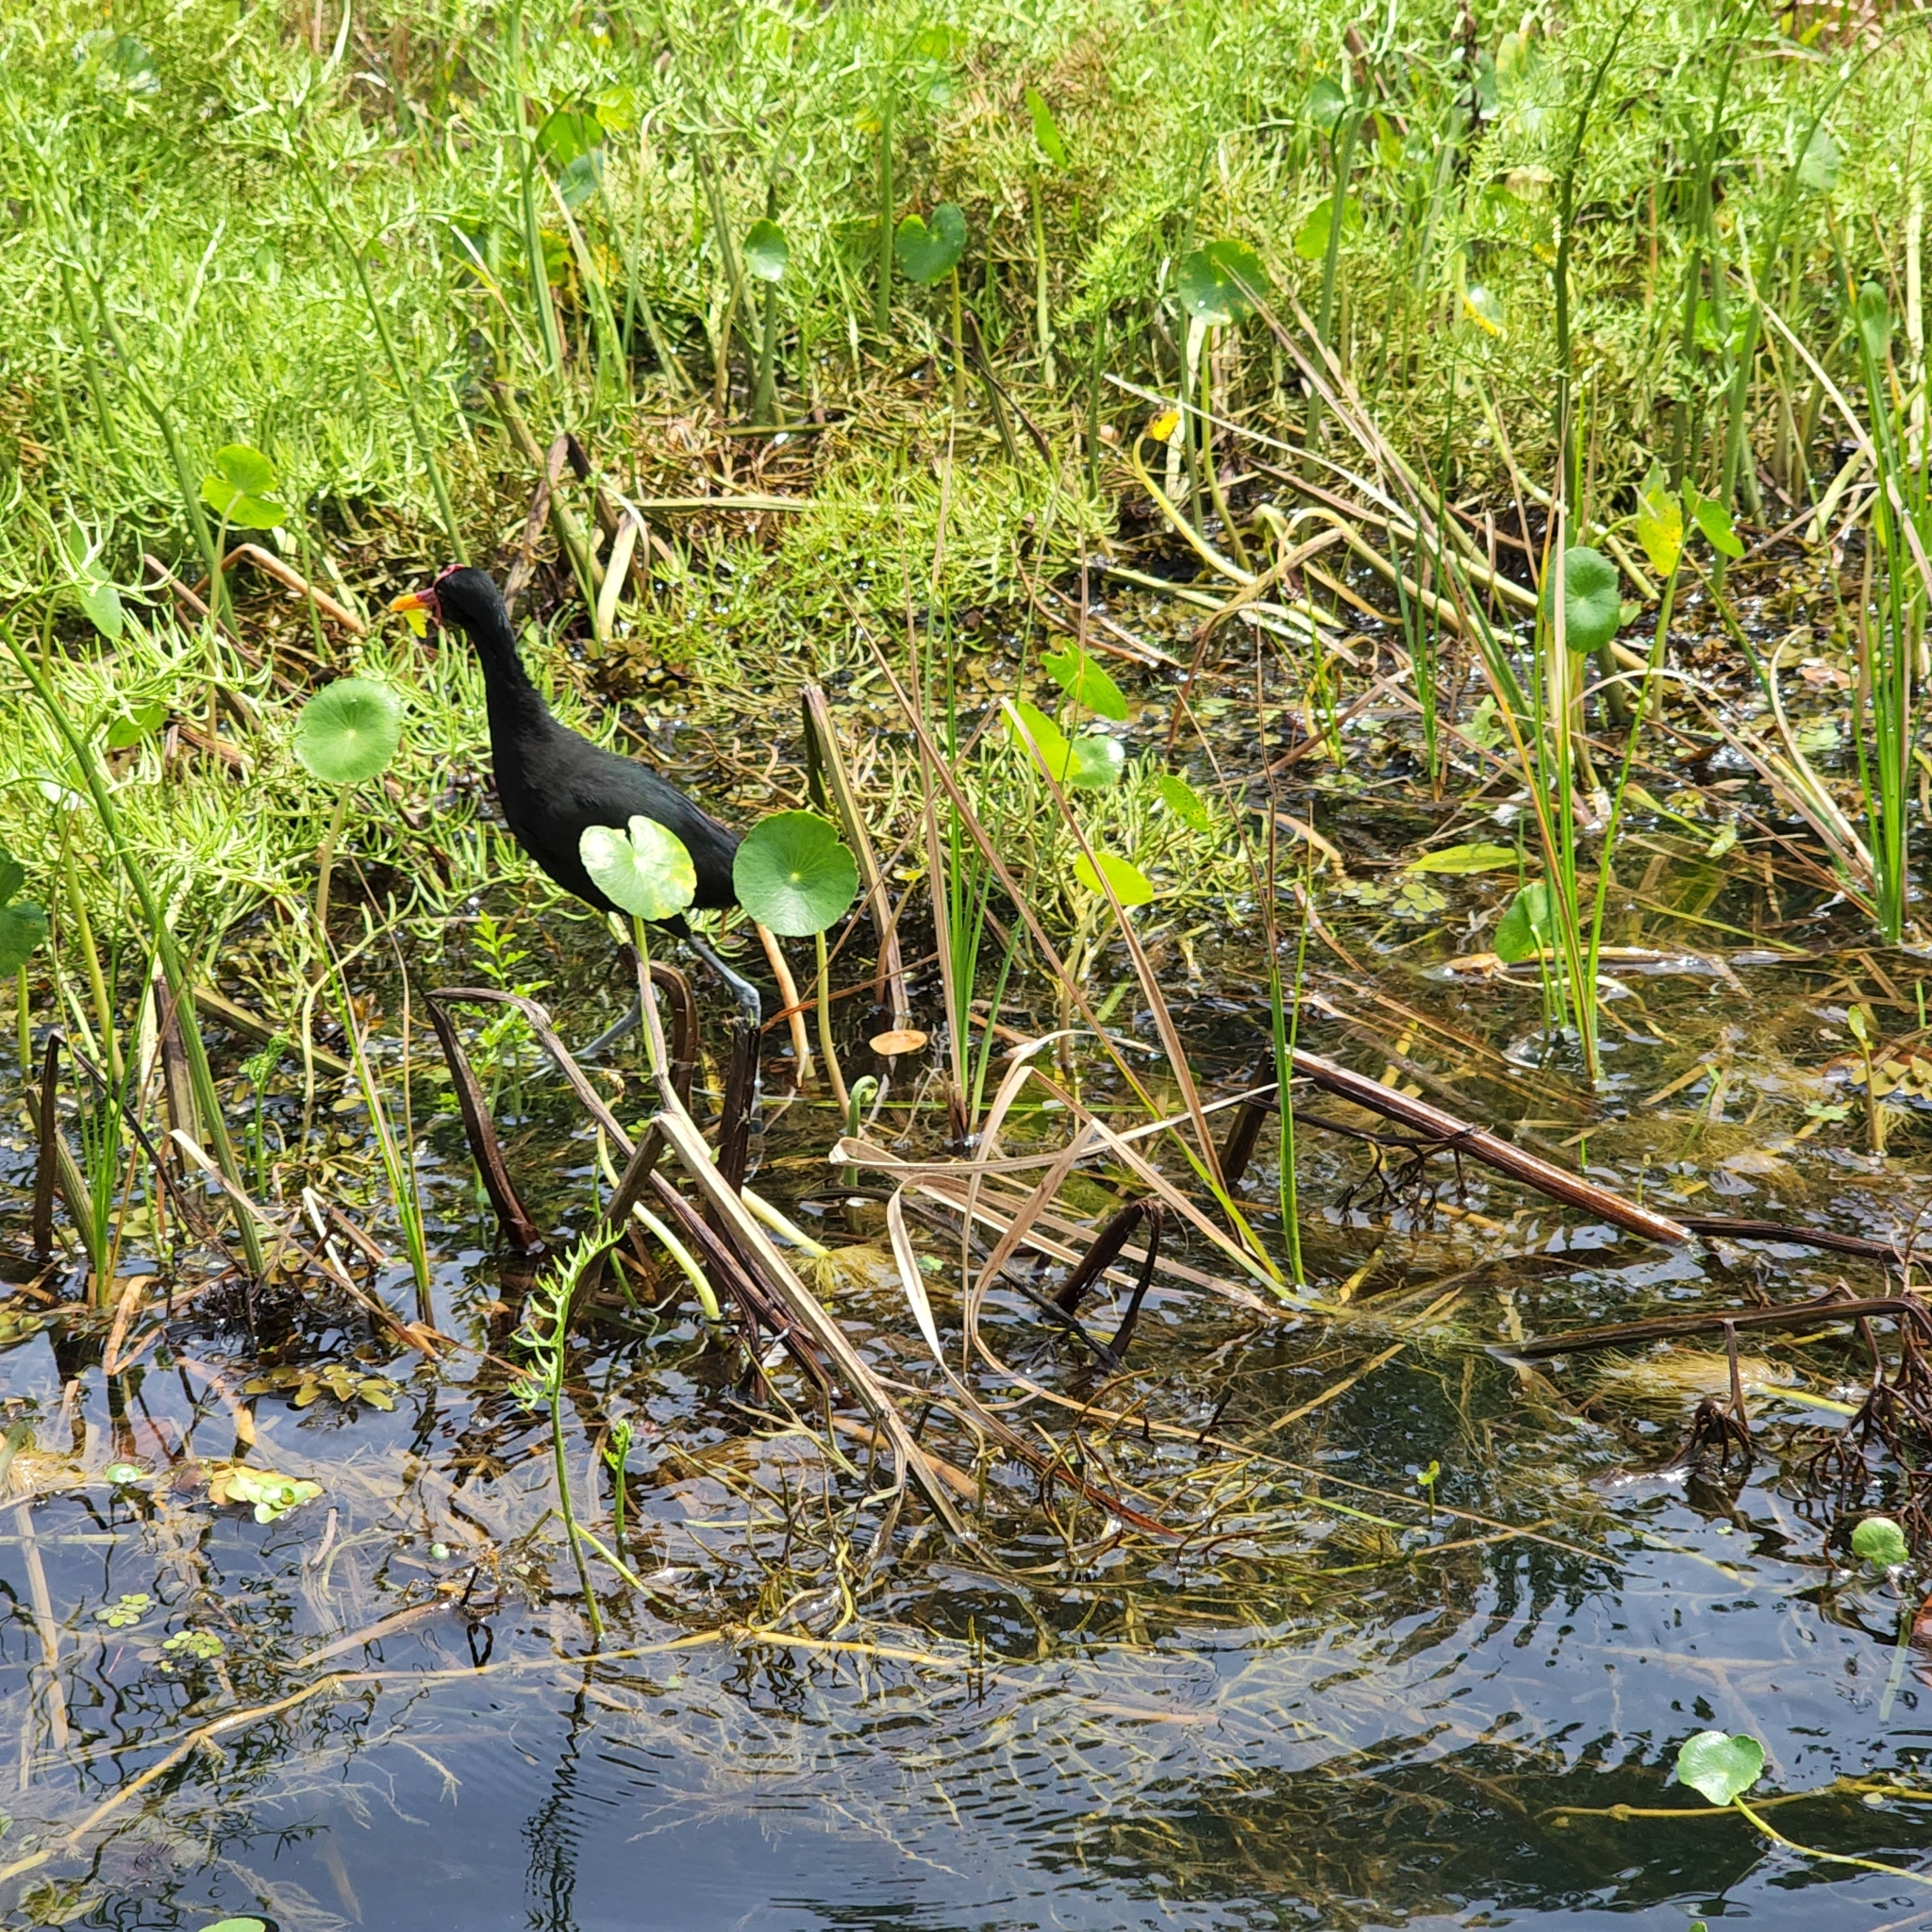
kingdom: Animalia
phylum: Chordata
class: Aves
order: Charadriiformes
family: Jacanidae
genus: Jacana
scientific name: Jacana jacana
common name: Wattled jacana
